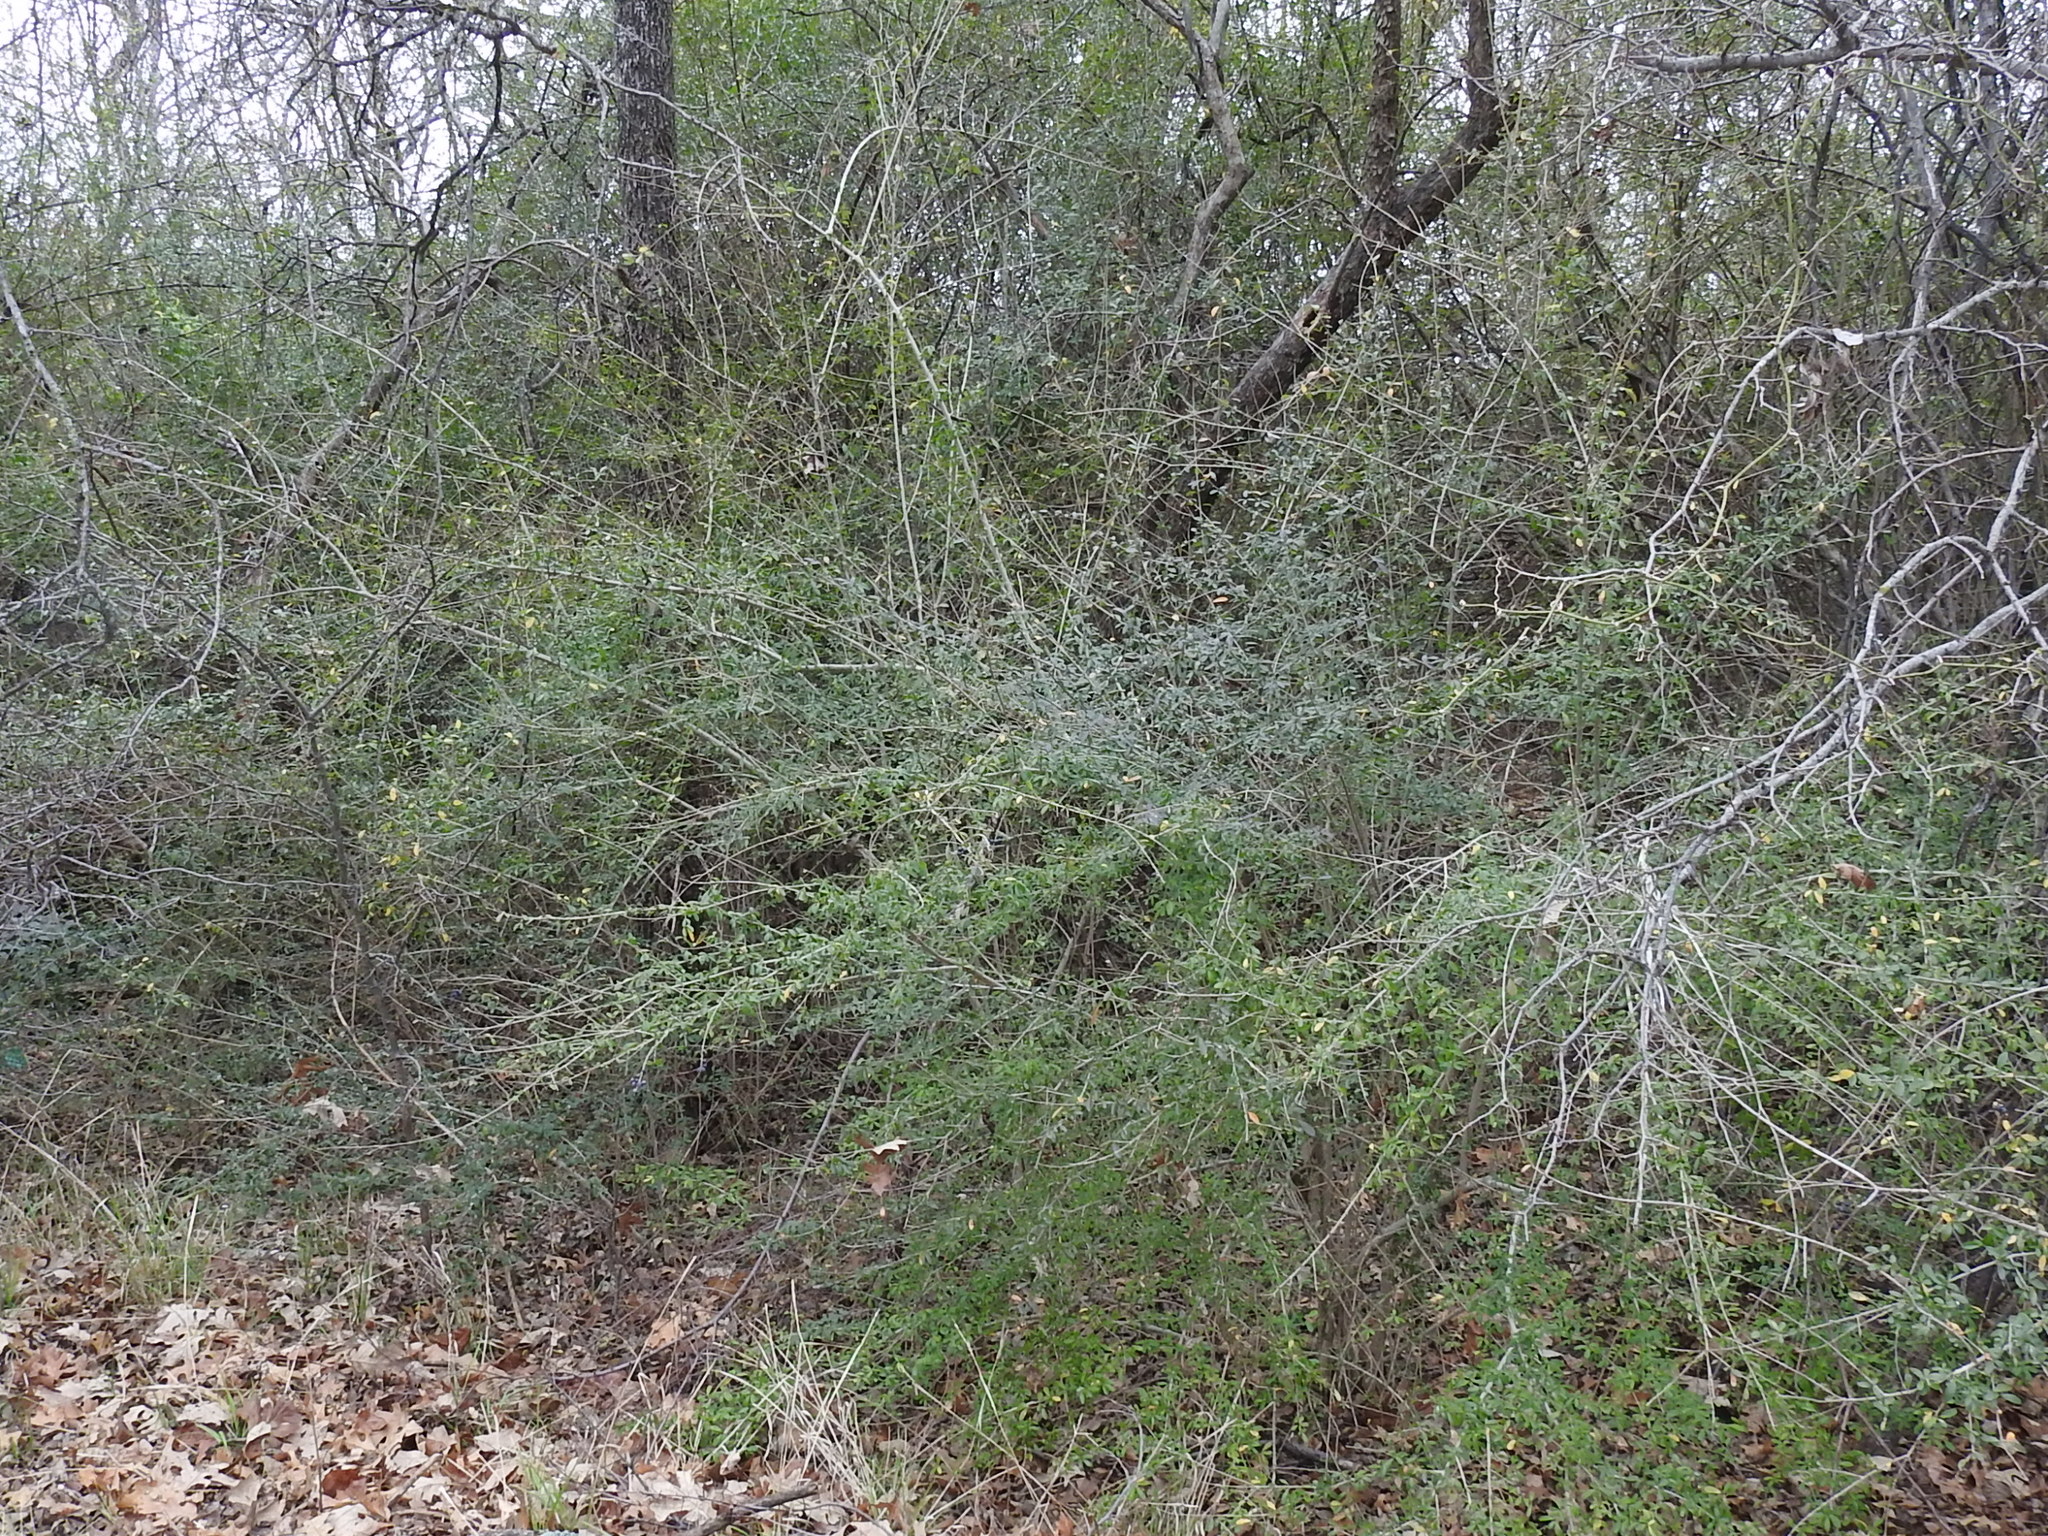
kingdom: Plantae
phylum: Tracheophyta
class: Magnoliopsida
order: Lamiales
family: Oleaceae
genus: Ligustrum
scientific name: Ligustrum quihoui
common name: Waxyleaf privet
